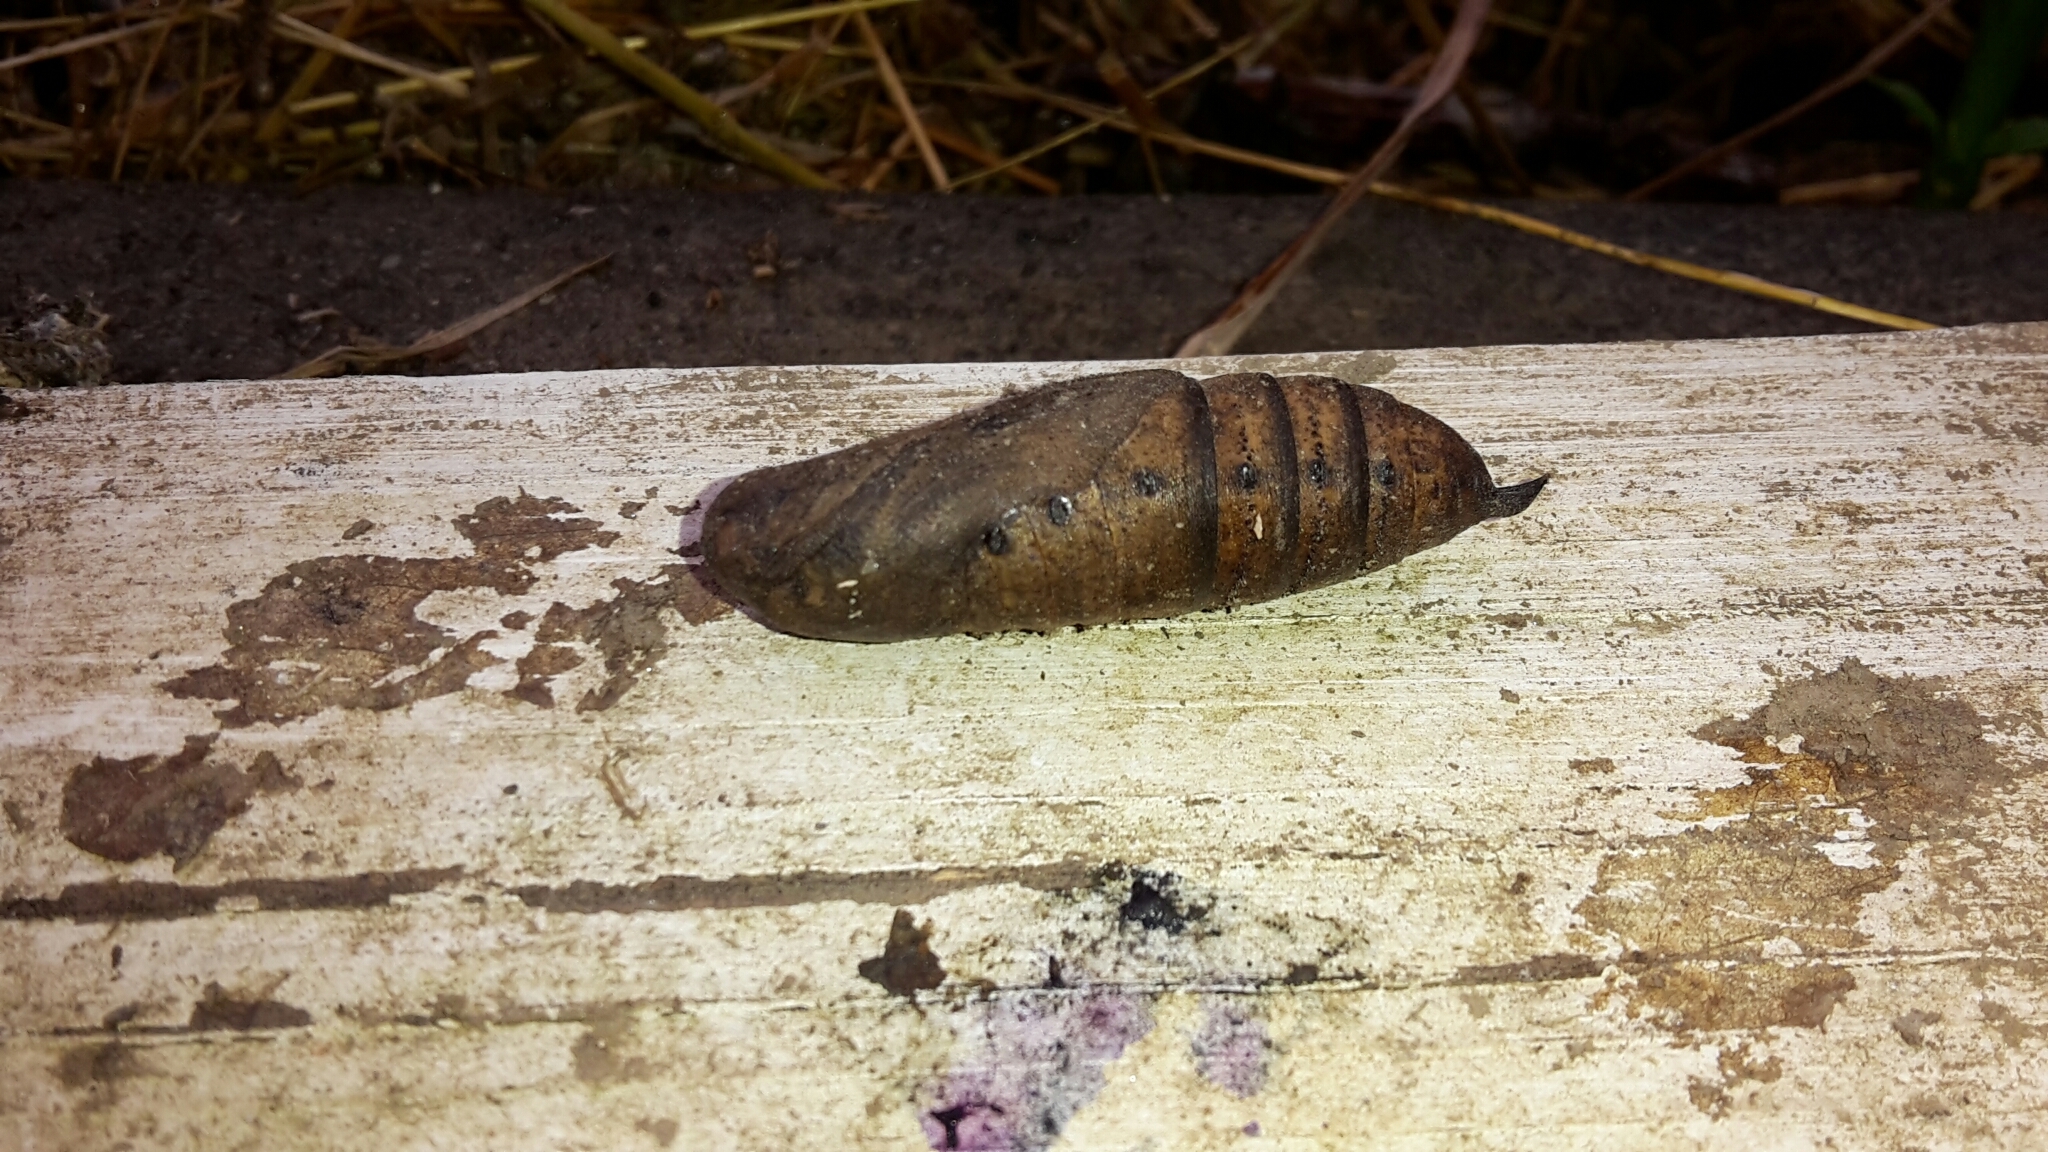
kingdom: Animalia
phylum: Arthropoda
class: Insecta
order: Lepidoptera
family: Sphingidae
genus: Deilephila
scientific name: Deilephila elpenor
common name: Elephant hawk-moth
